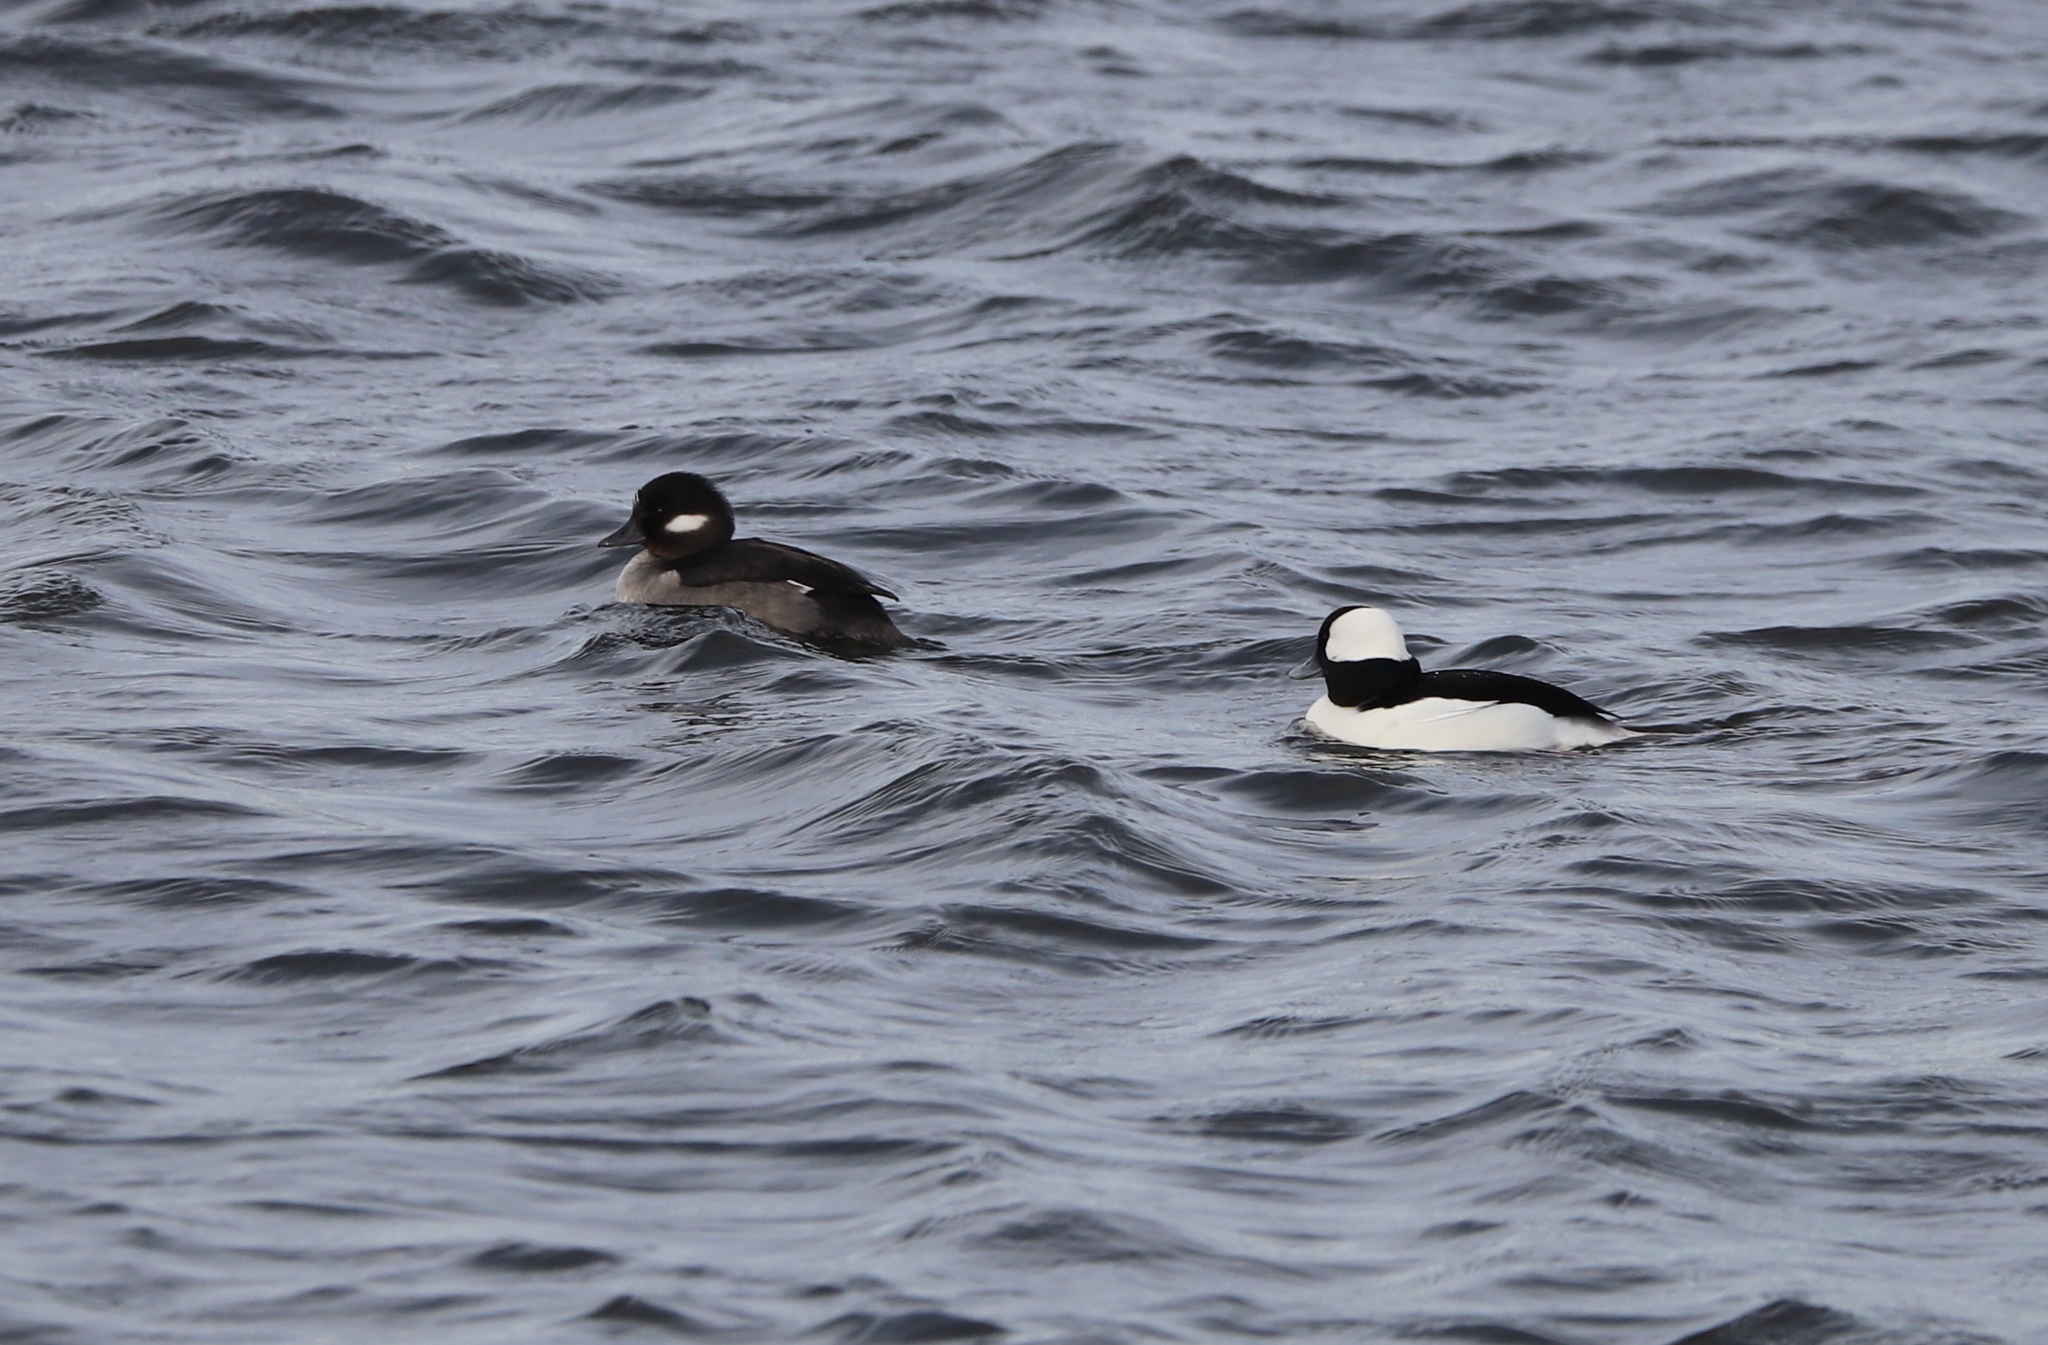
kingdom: Animalia
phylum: Chordata
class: Aves
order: Anseriformes
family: Anatidae
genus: Bucephala
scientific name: Bucephala albeola
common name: Bufflehead
